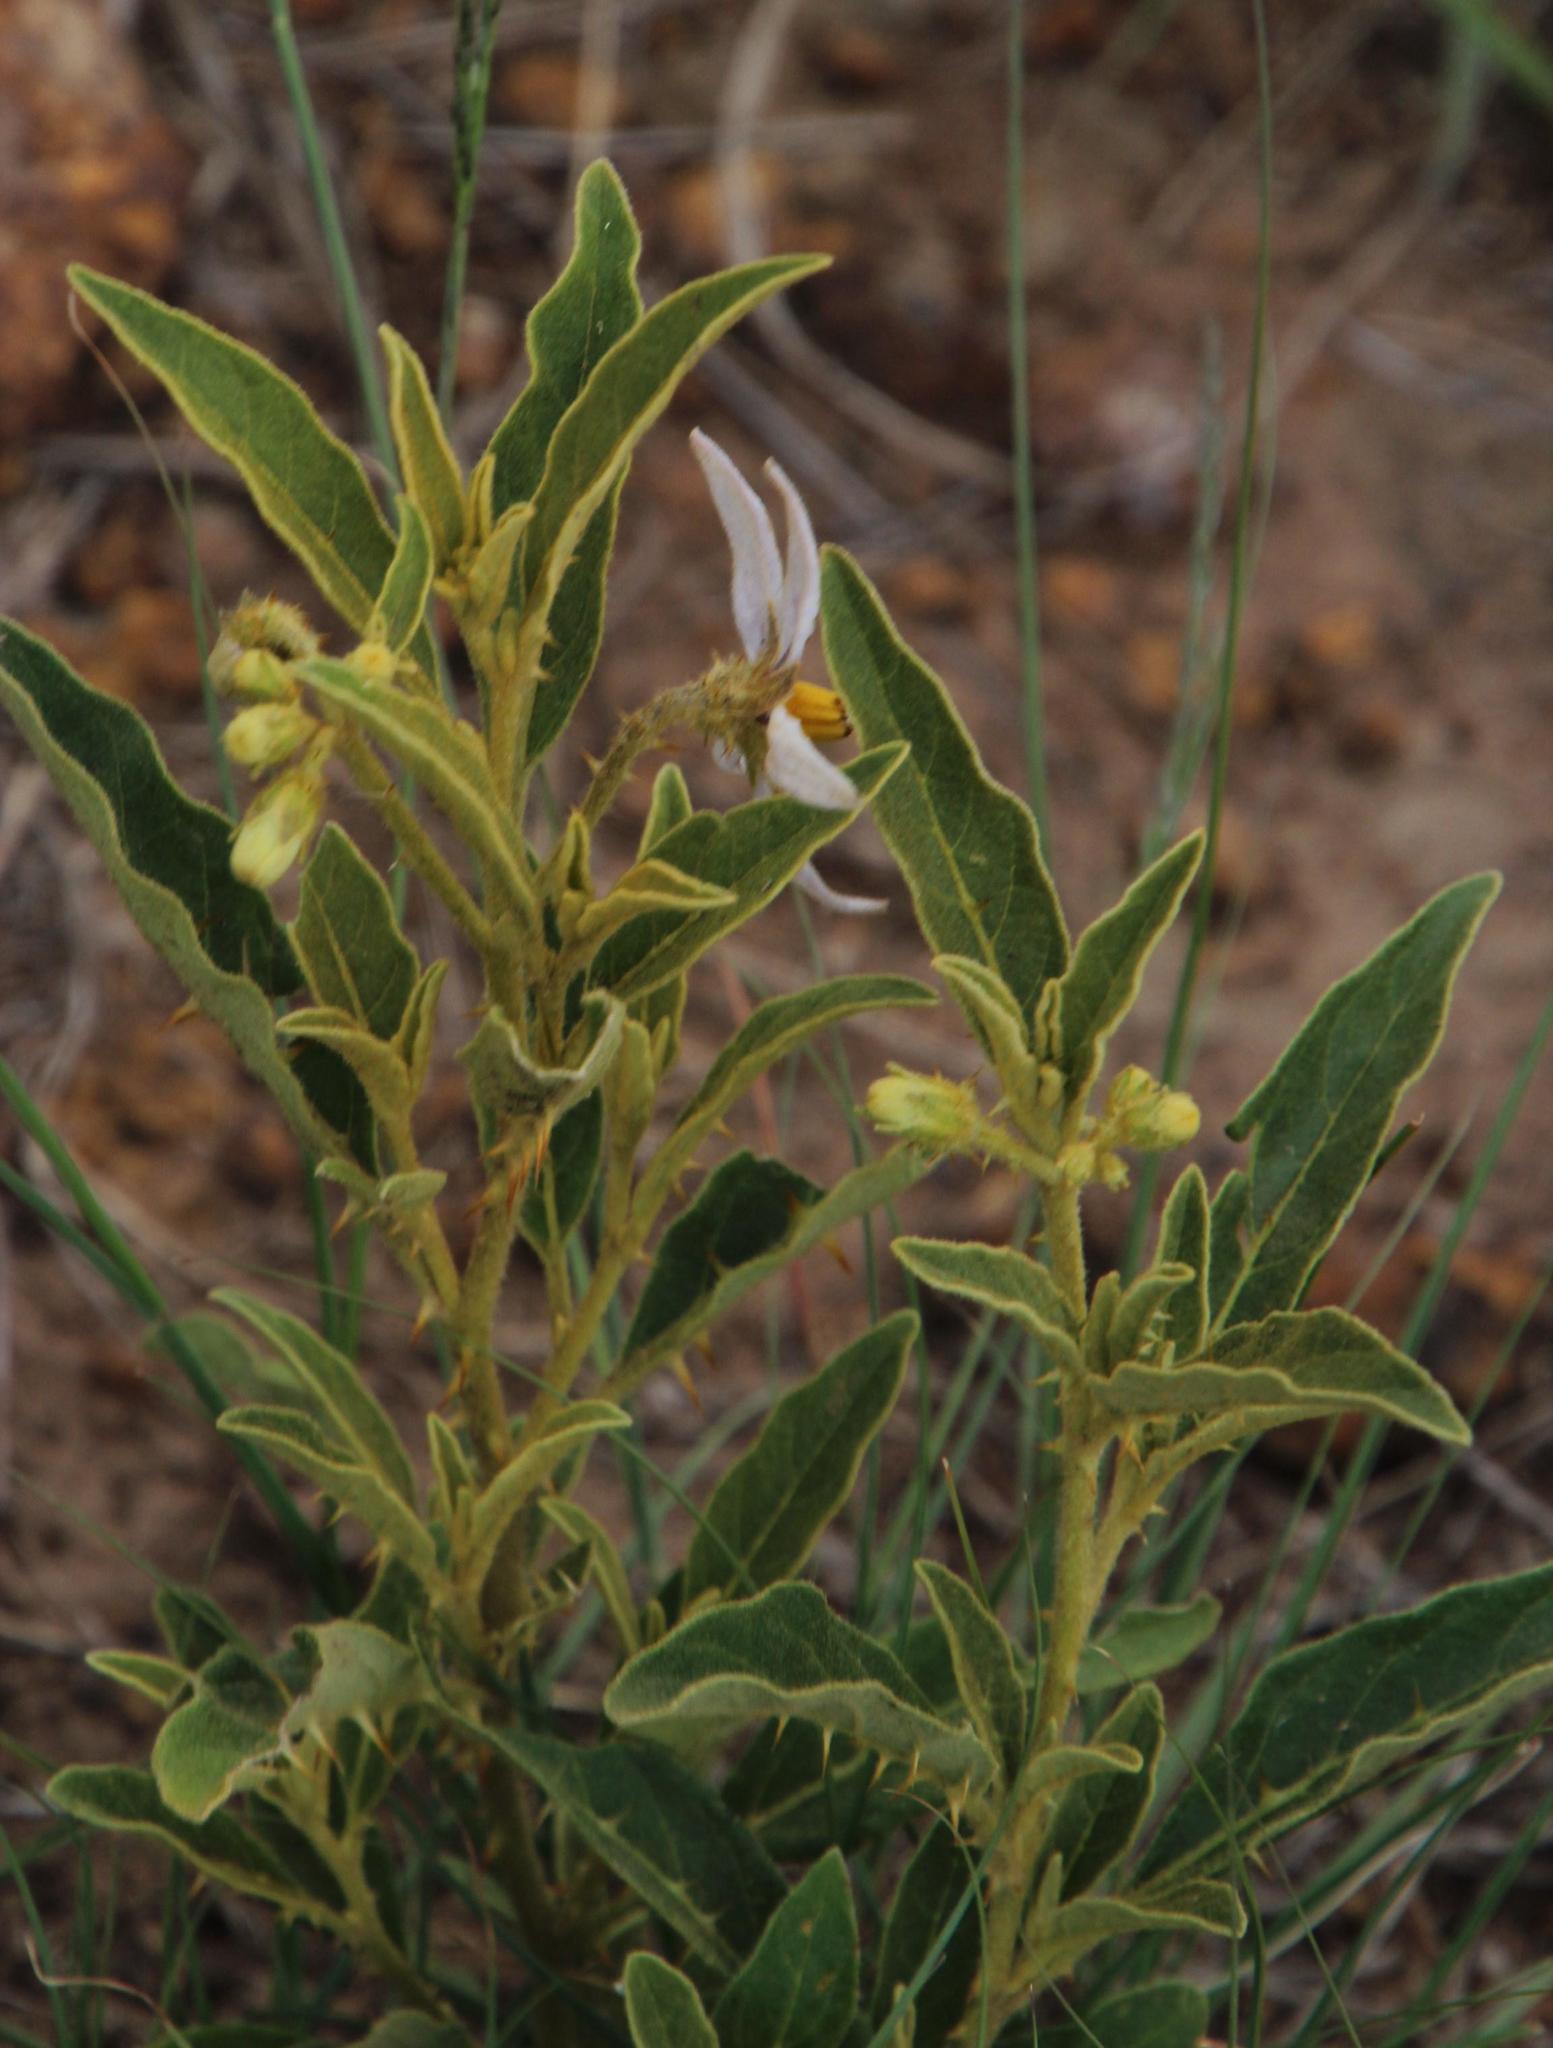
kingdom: Plantae
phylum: Tracheophyta
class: Magnoliopsida
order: Solanales
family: Solanaceae
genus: Solanum
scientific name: Solanum campylacanthum
